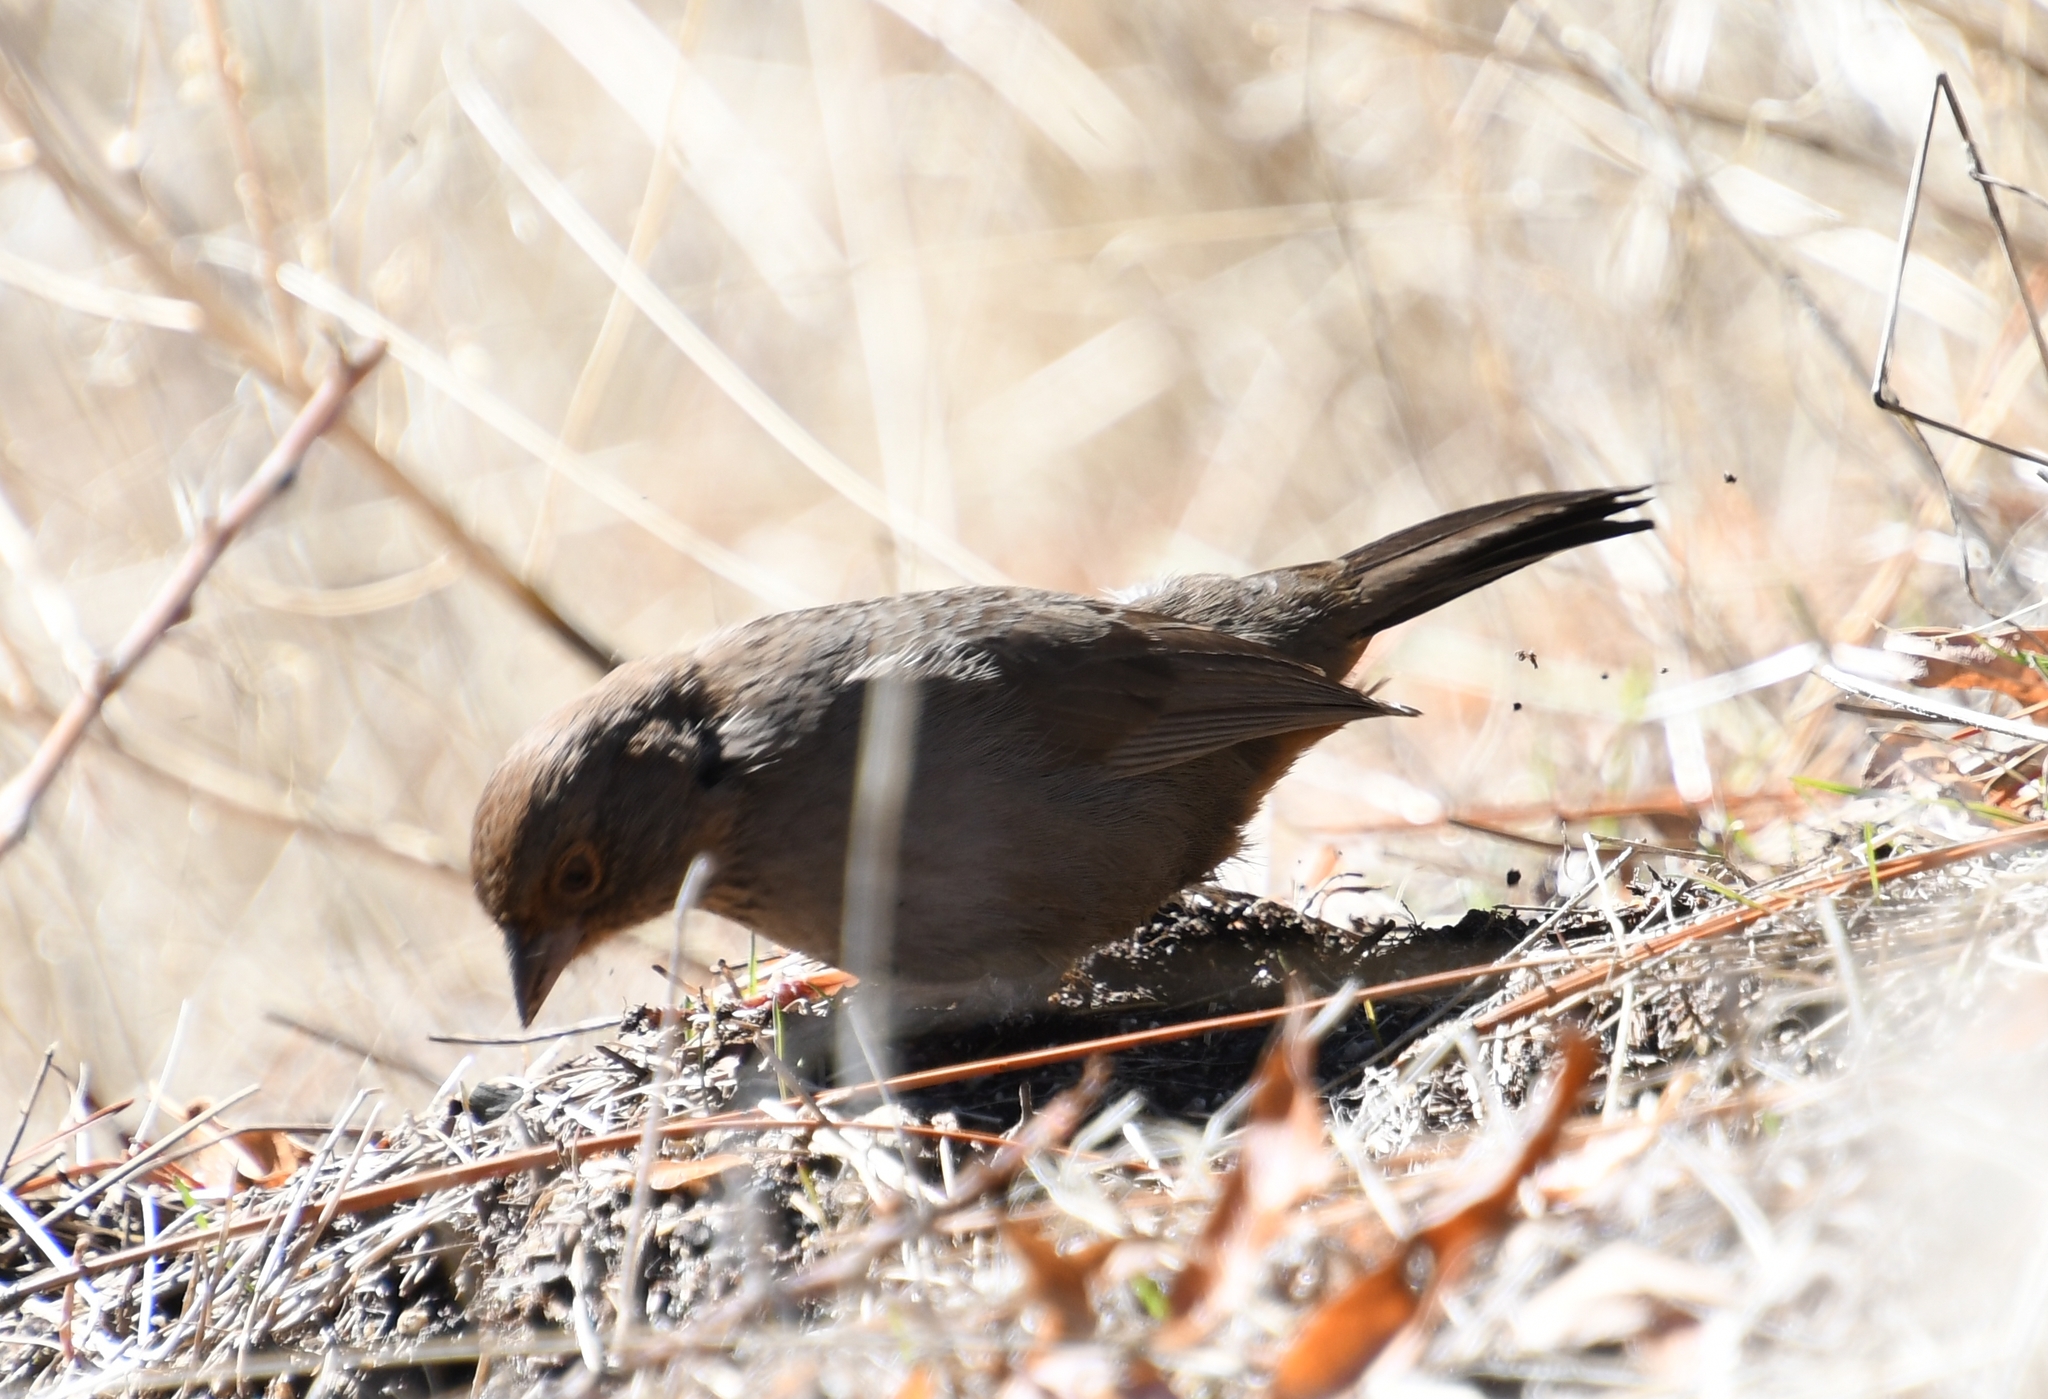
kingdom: Animalia
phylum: Chordata
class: Aves
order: Passeriformes
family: Passerellidae
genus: Melozone
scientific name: Melozone crissalis
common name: California towhee
